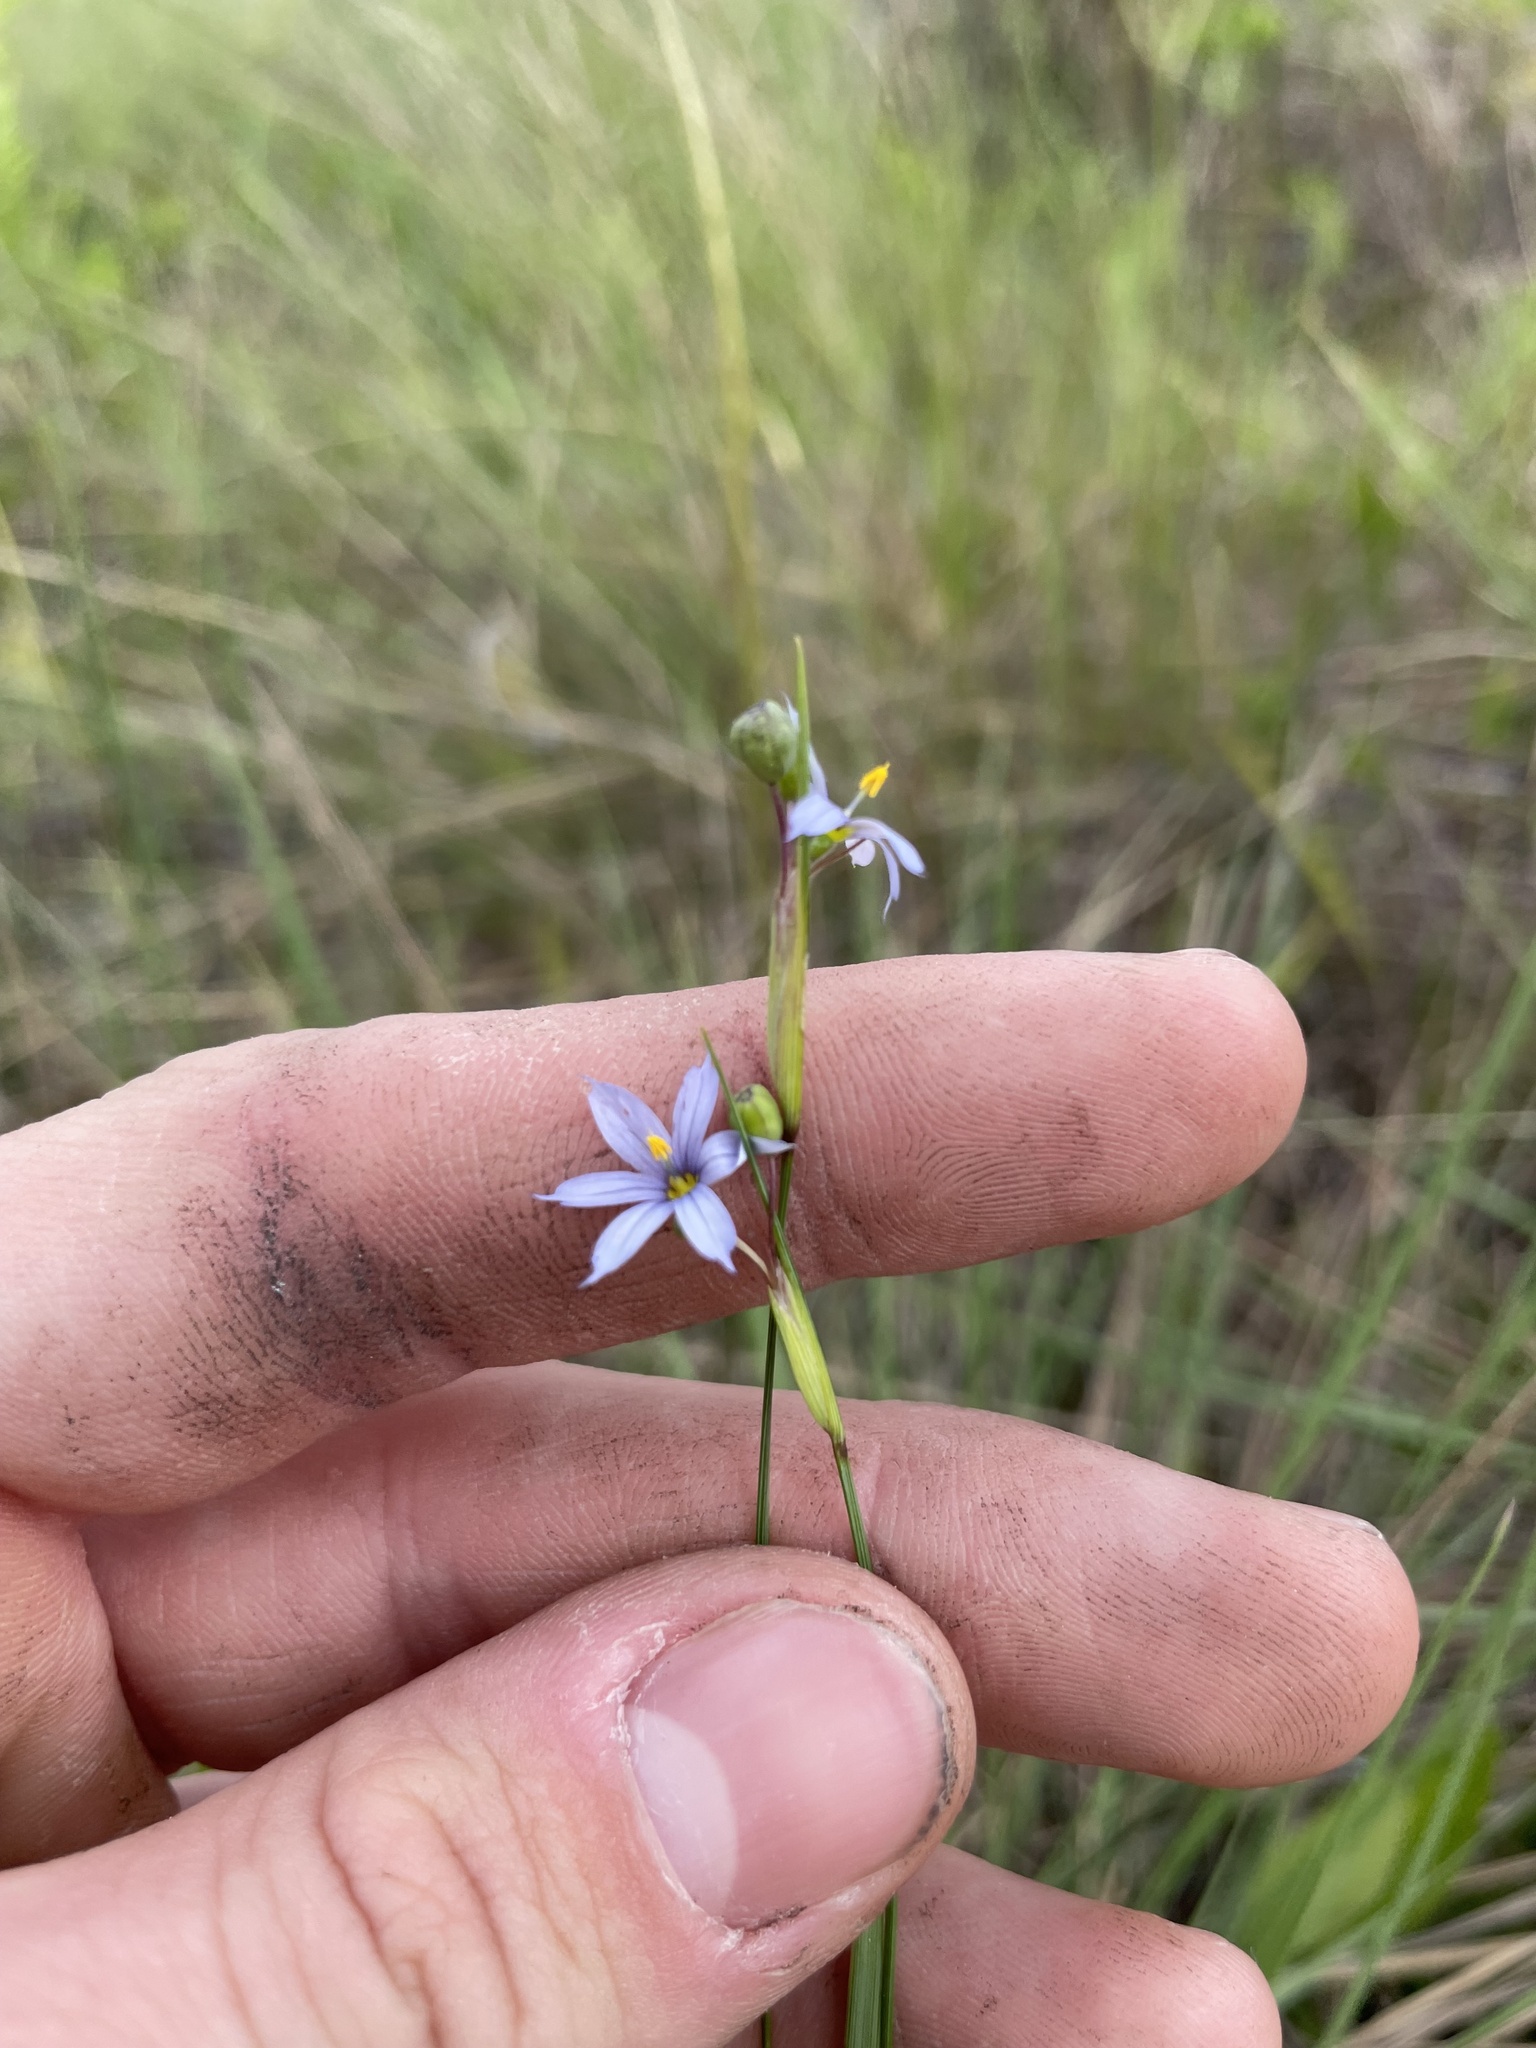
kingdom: Plantae
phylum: Tracheophyta
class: Liliopsida
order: Asparagales
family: Iridaceae
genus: Sisyrinchium
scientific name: Sisyrinchium capillare
